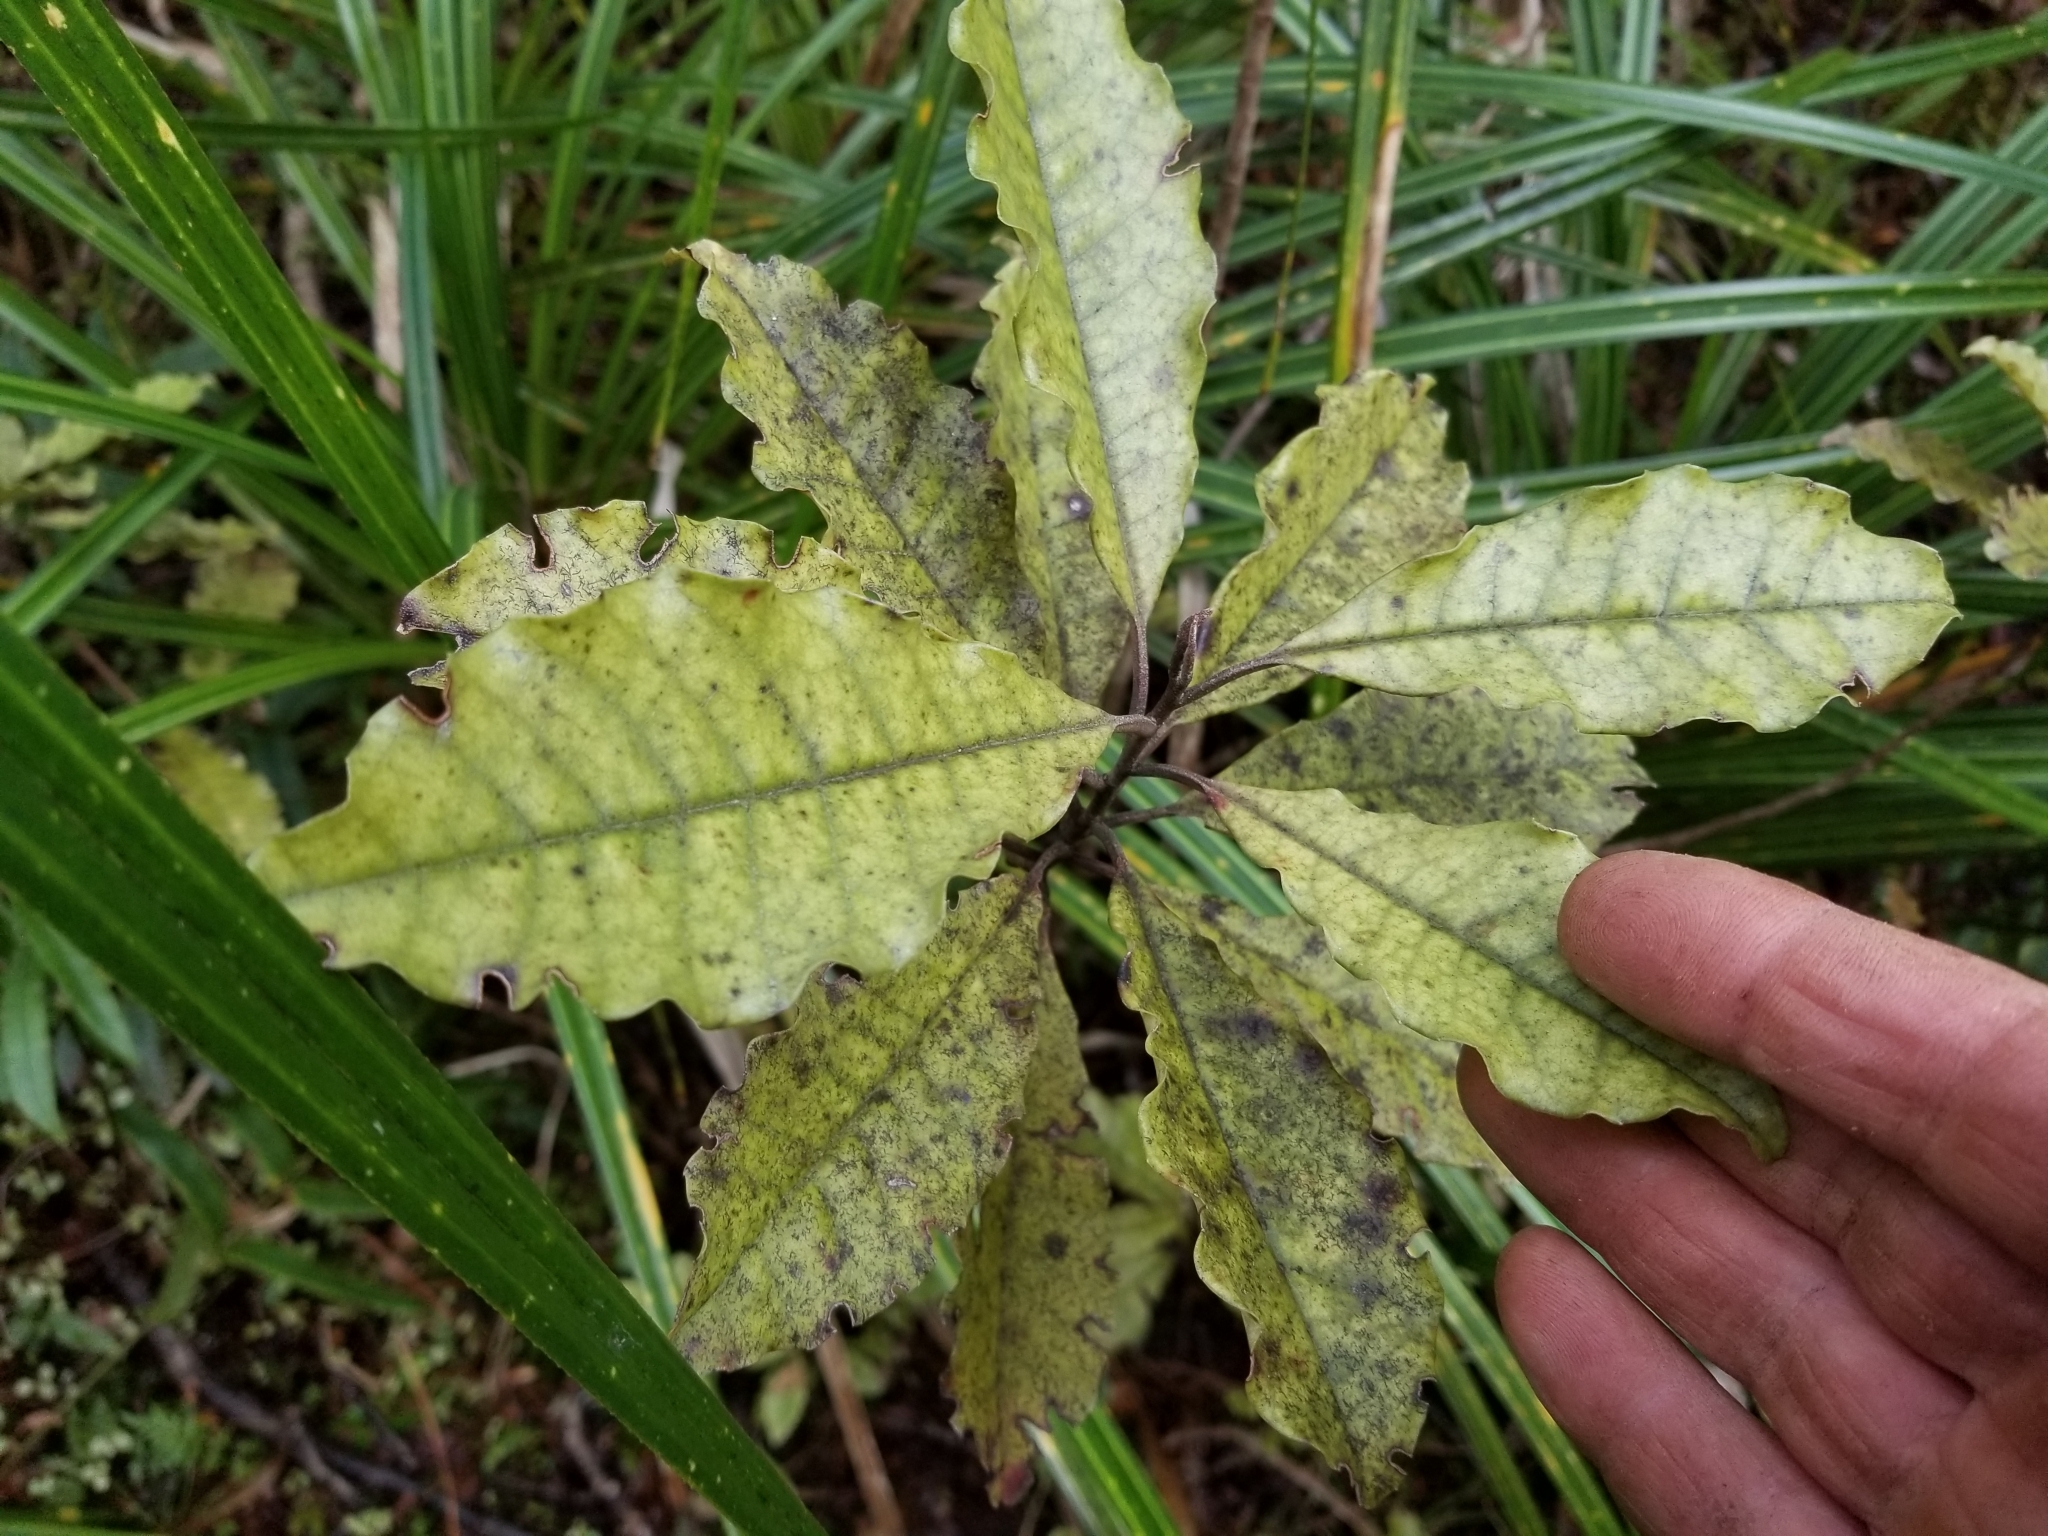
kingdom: Plantae
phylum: Tracheophyta
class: Magnoliopsida
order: Paracryphiales
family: Paracryphiaceae
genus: Quintinia
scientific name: Quintinia serrata
